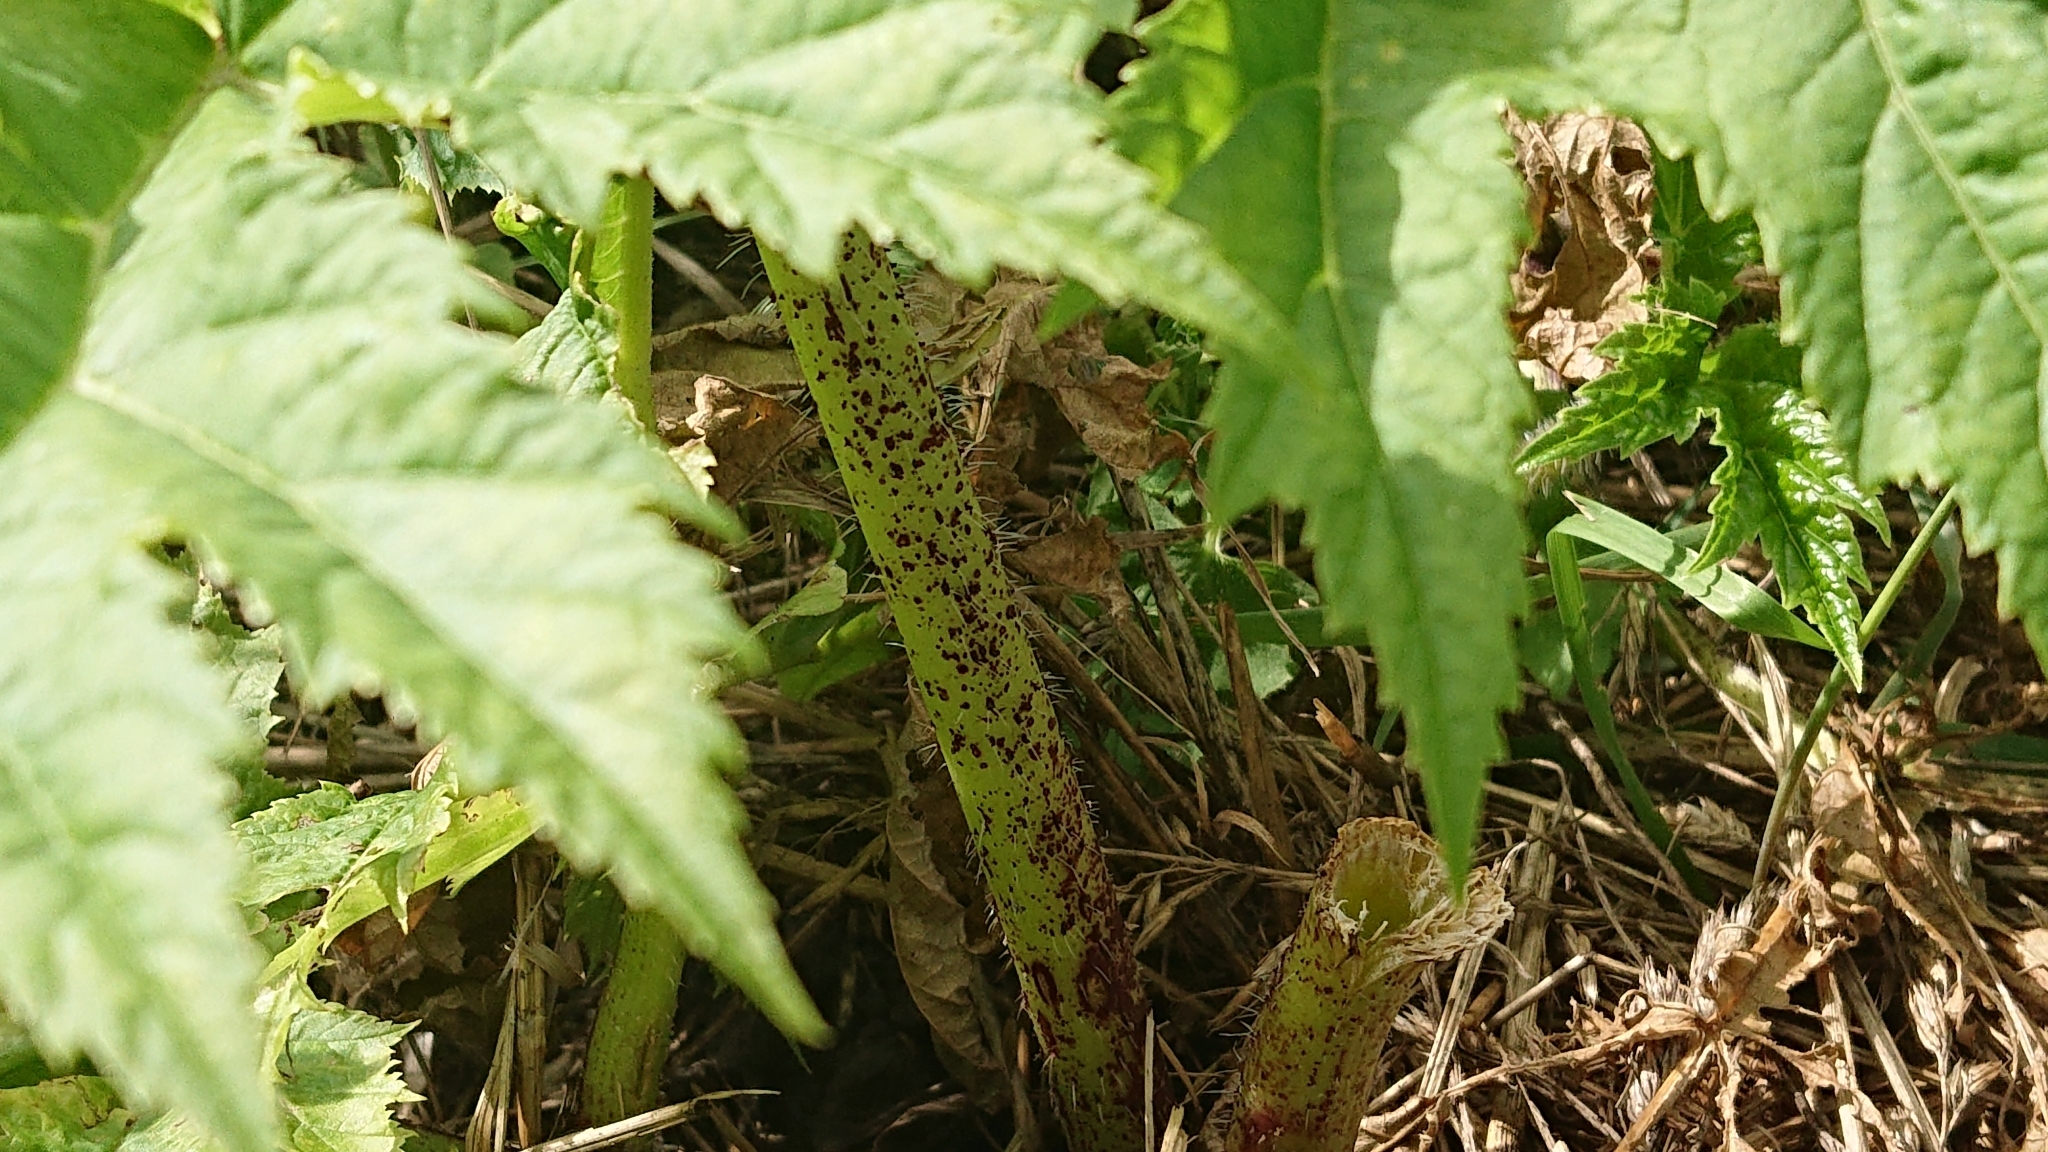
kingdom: Plantae
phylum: Tracheophyta
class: Magnoliopsida
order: Apiales
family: Apiaceae
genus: Heracleum
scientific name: Heracleum mantegazzianum
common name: Giant hogweed
